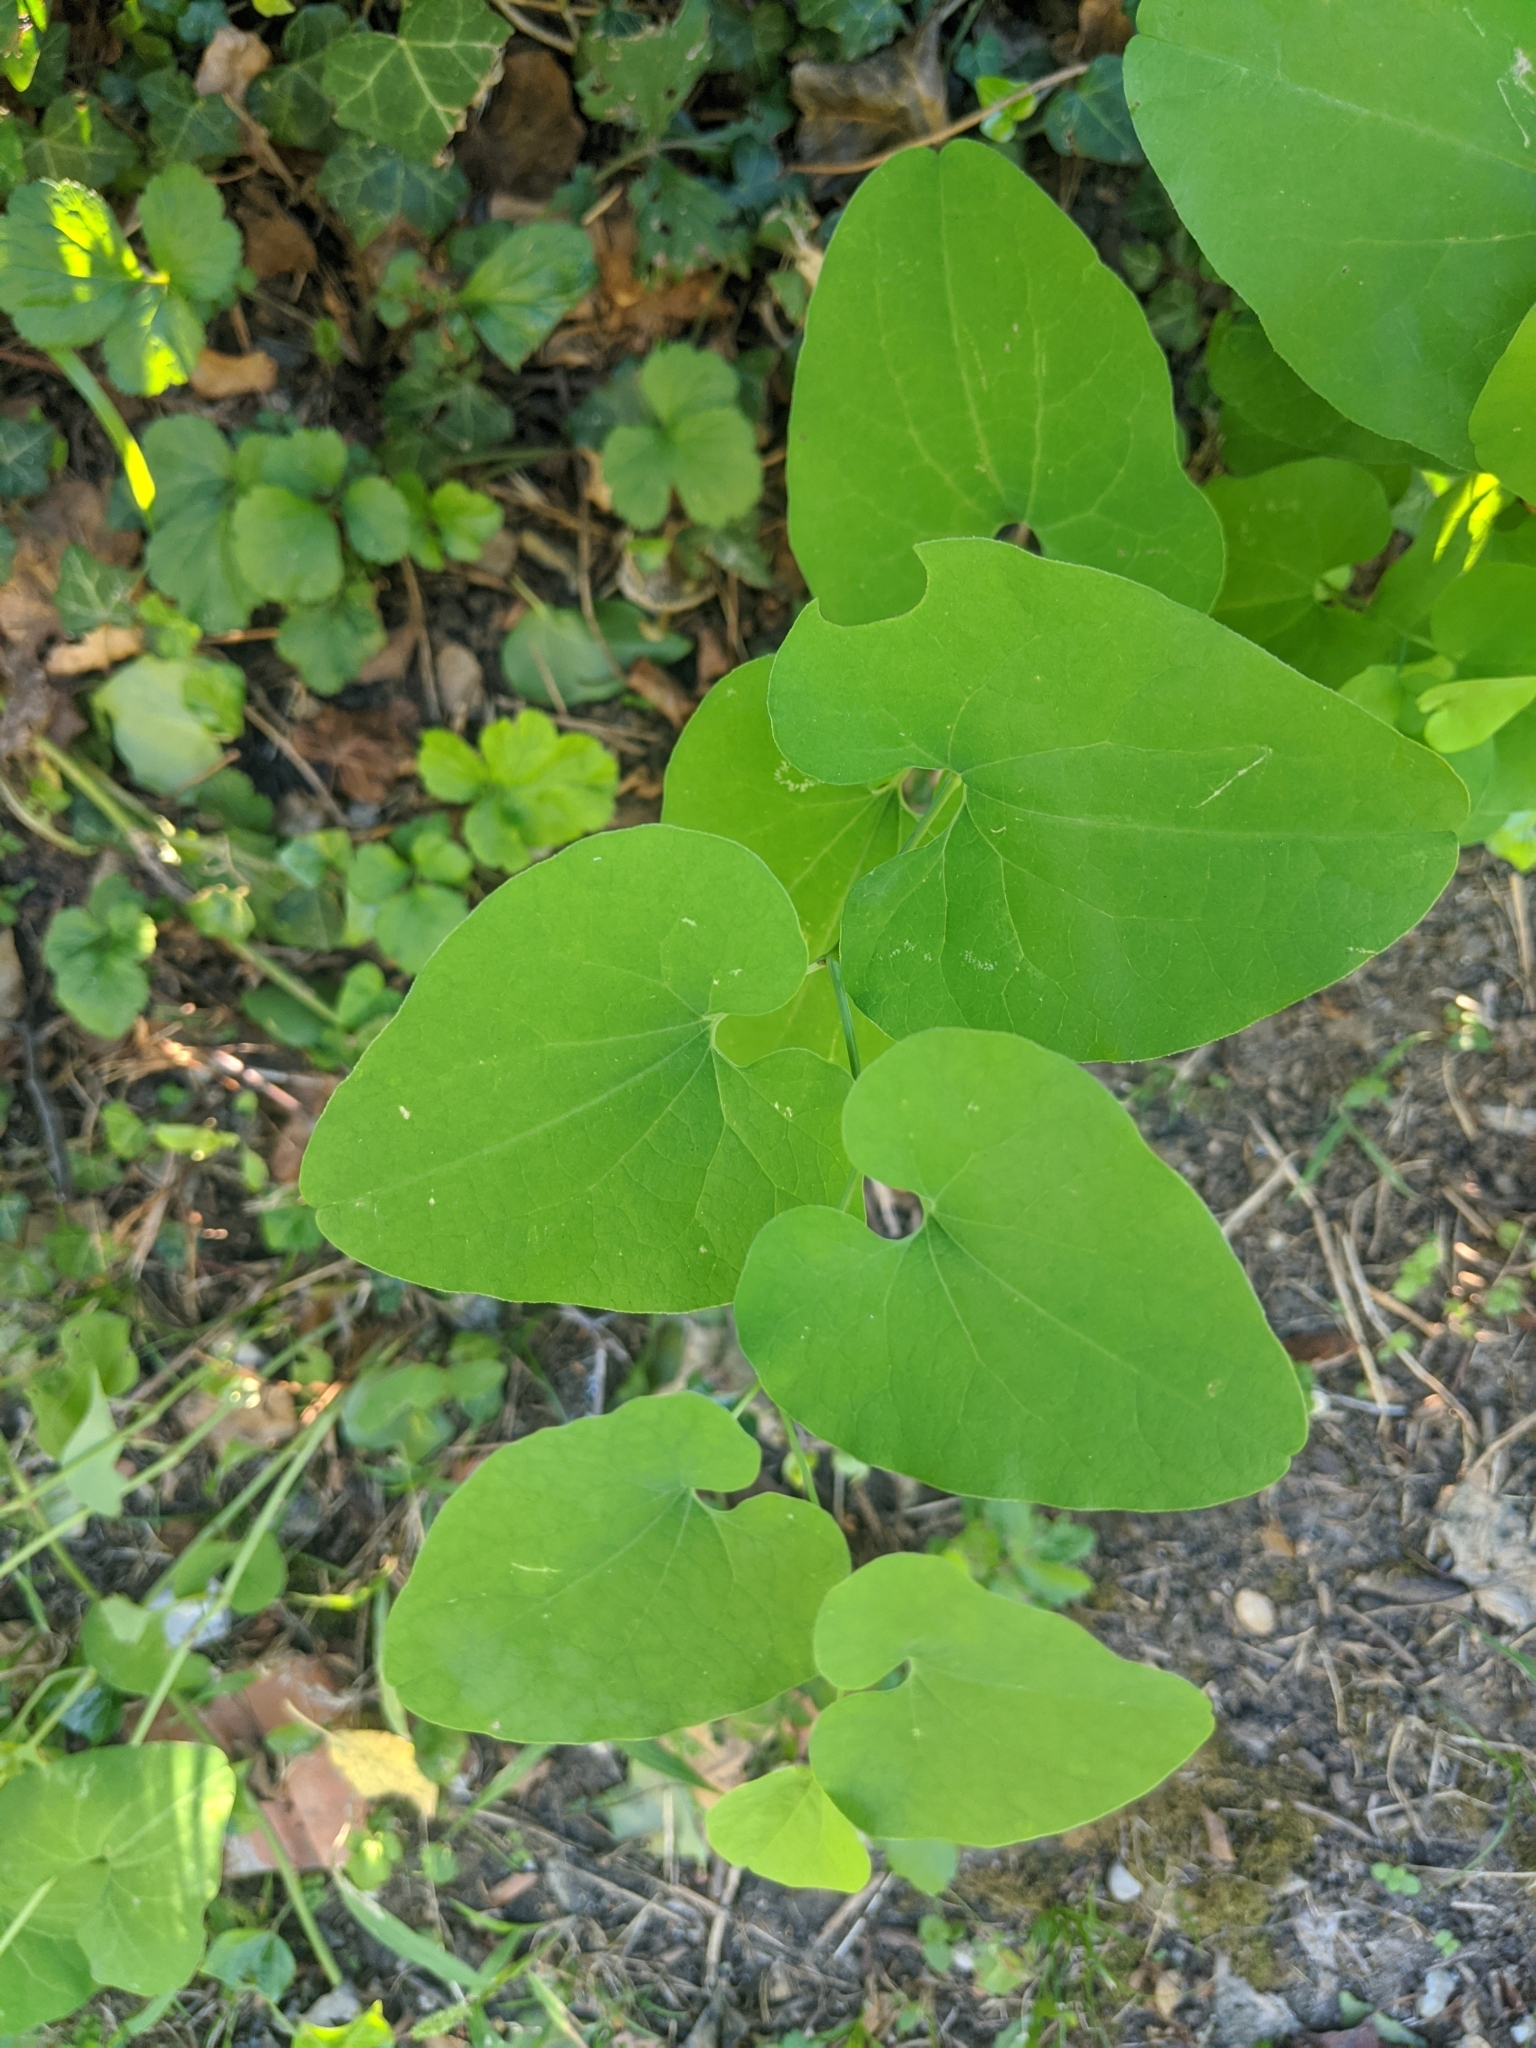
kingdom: Plantae
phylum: Tracheophyta
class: Magnoliopsida
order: Piperales
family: Aristolochiaceae
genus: Aristolochia
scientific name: Aristolochia clematitis
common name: Birthwort
